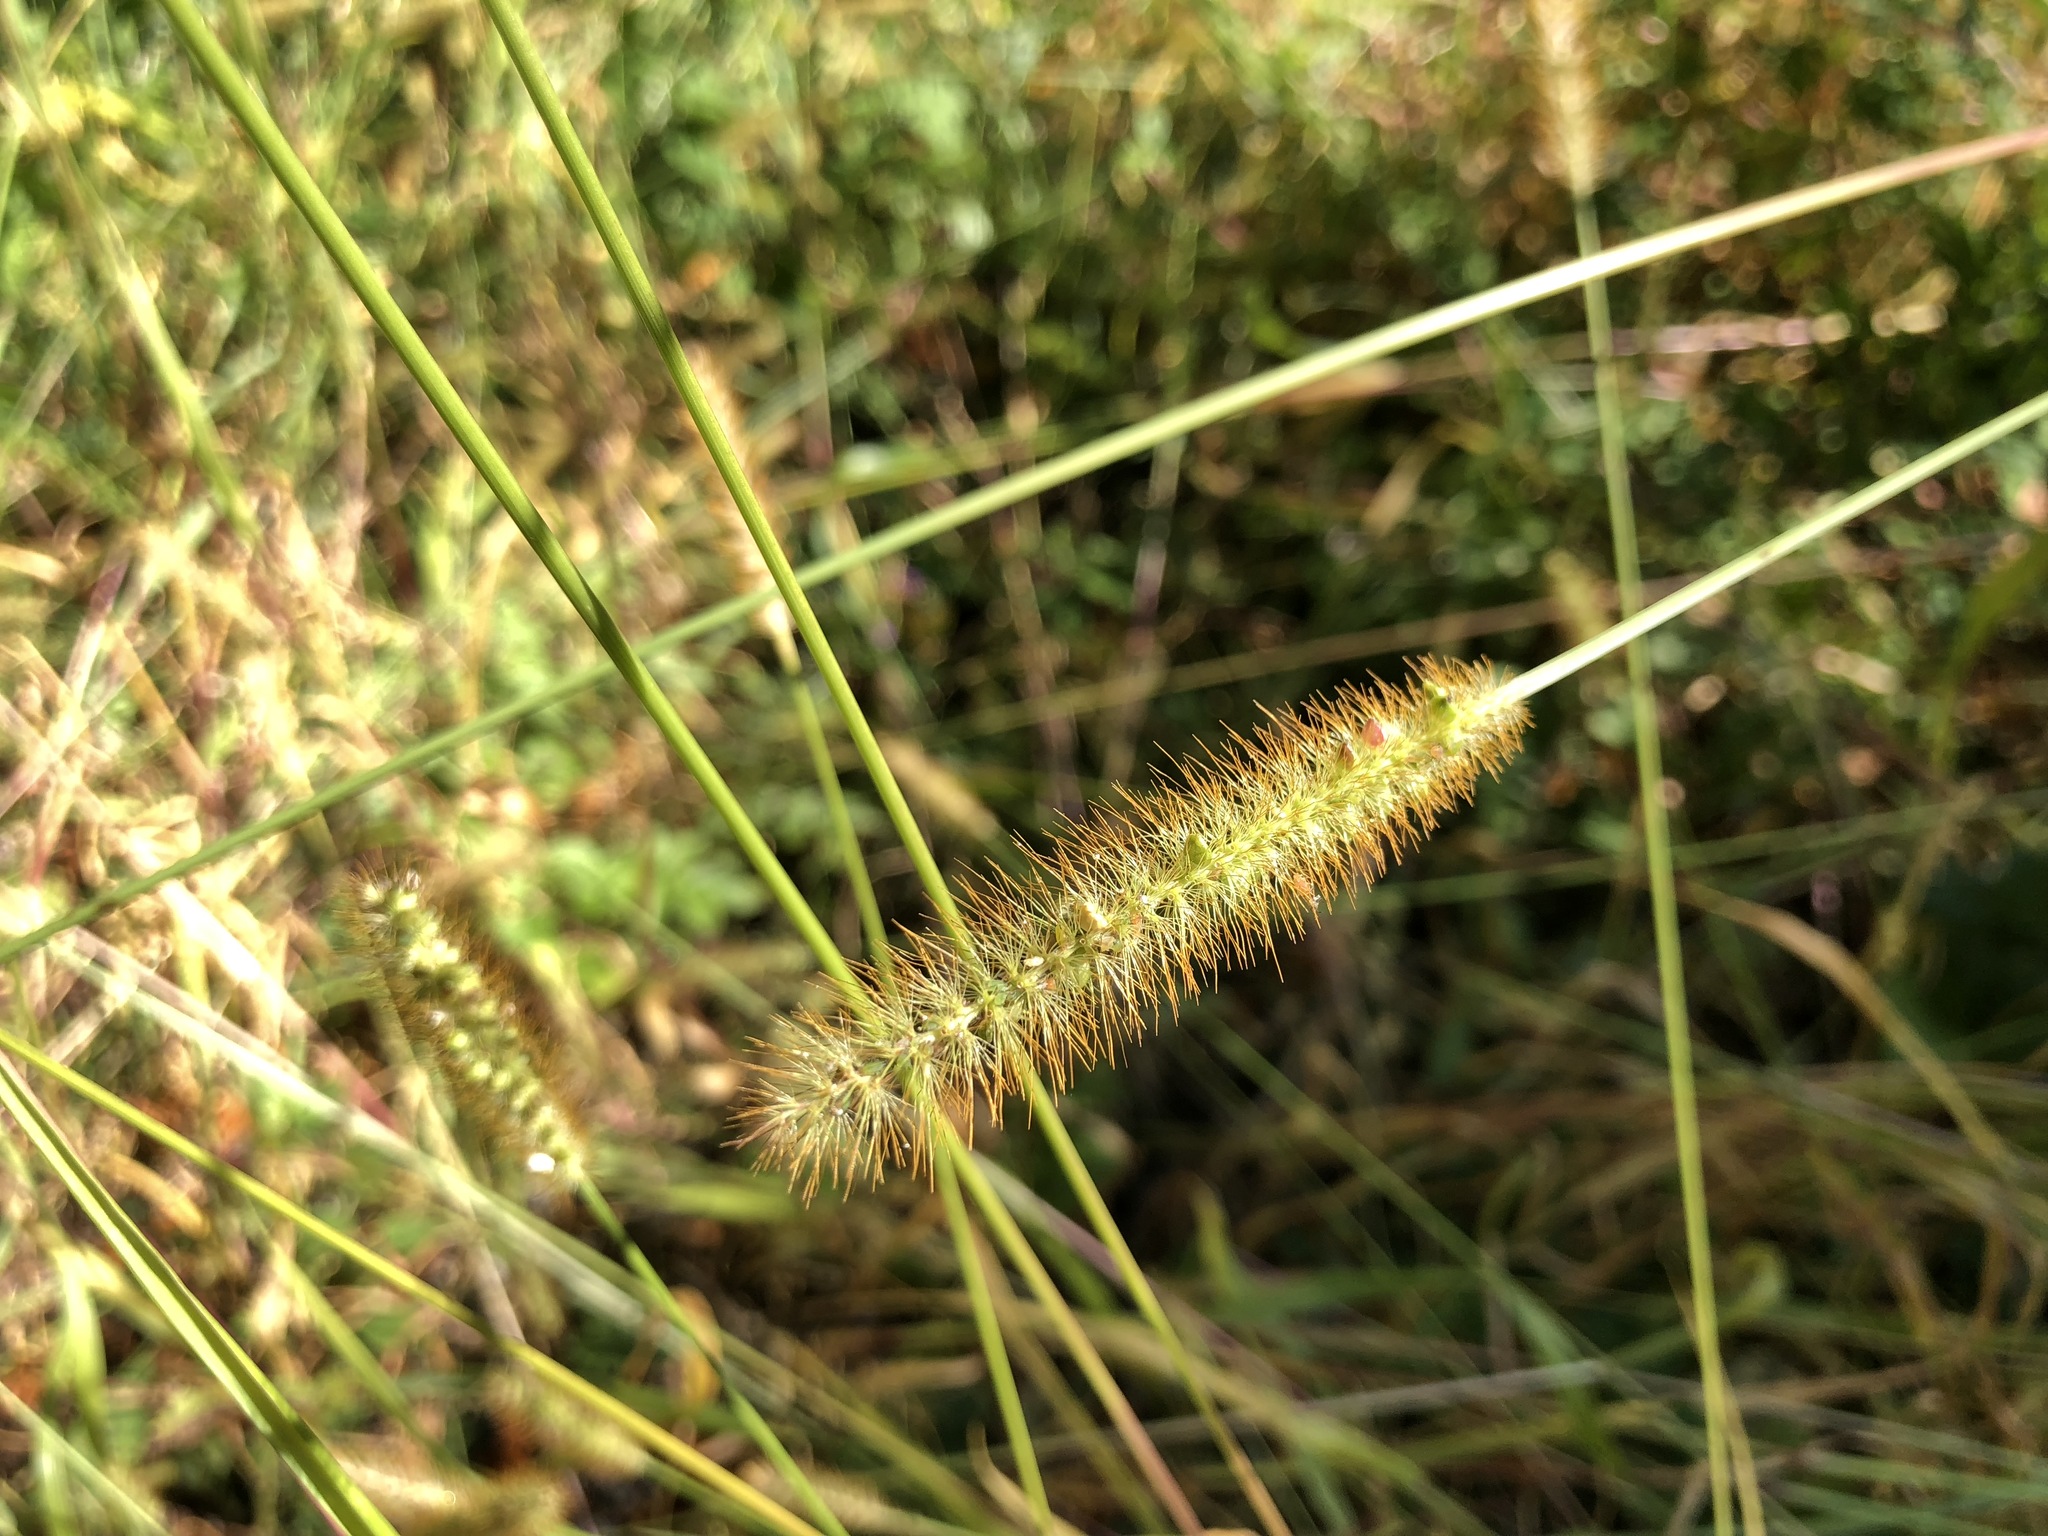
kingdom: Plantae
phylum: Tracheophyta
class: Liliopsida
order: Poales
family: Poaceae
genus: Setaria
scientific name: Setaria pumila
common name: Yellow bristle-grass
